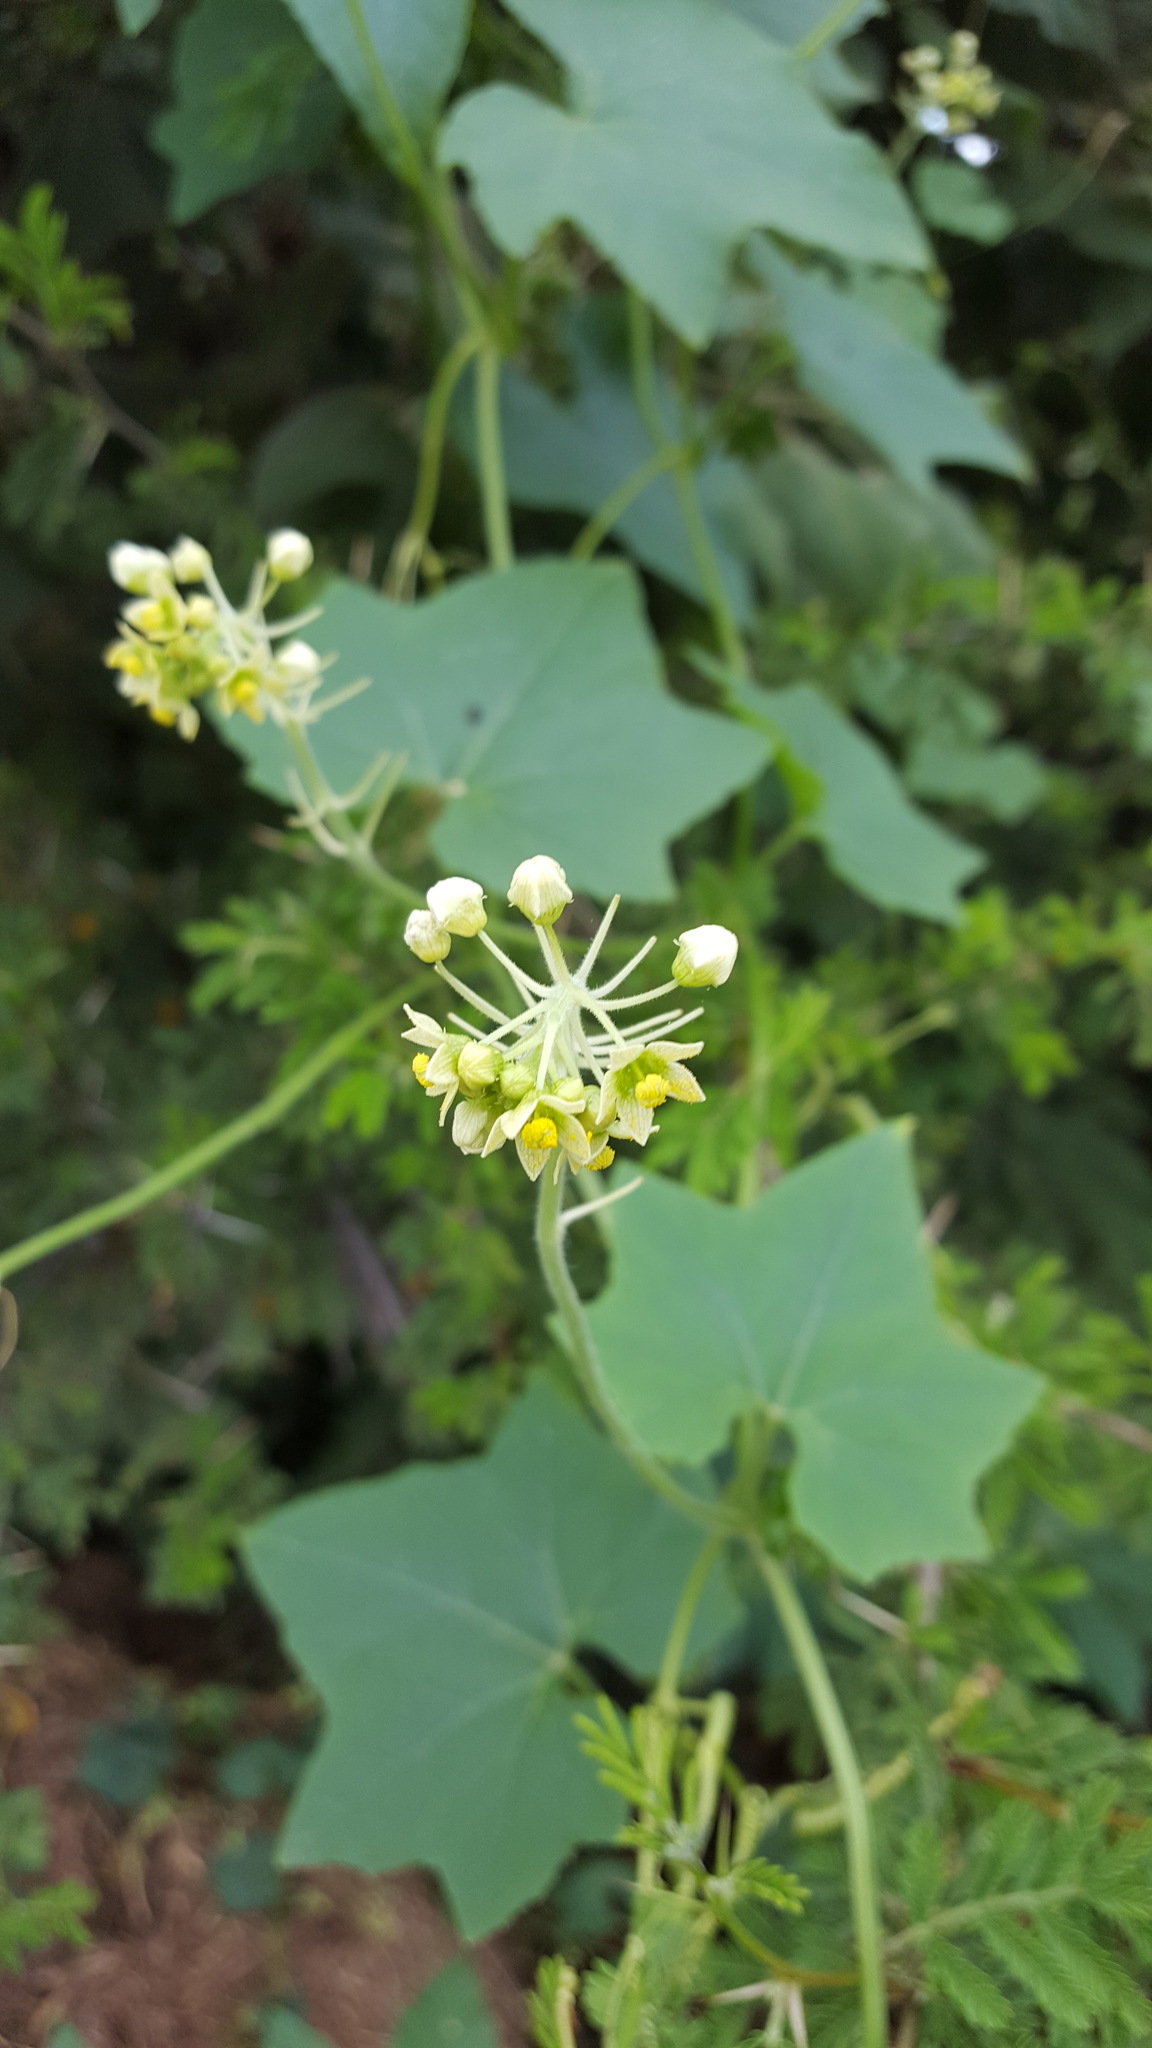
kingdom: Plantae
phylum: Tracheophyta
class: Magnoliopsida
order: Cucurbitales
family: Cucurbitaceae
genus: Sicyos
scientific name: Sicyos microphyllus
